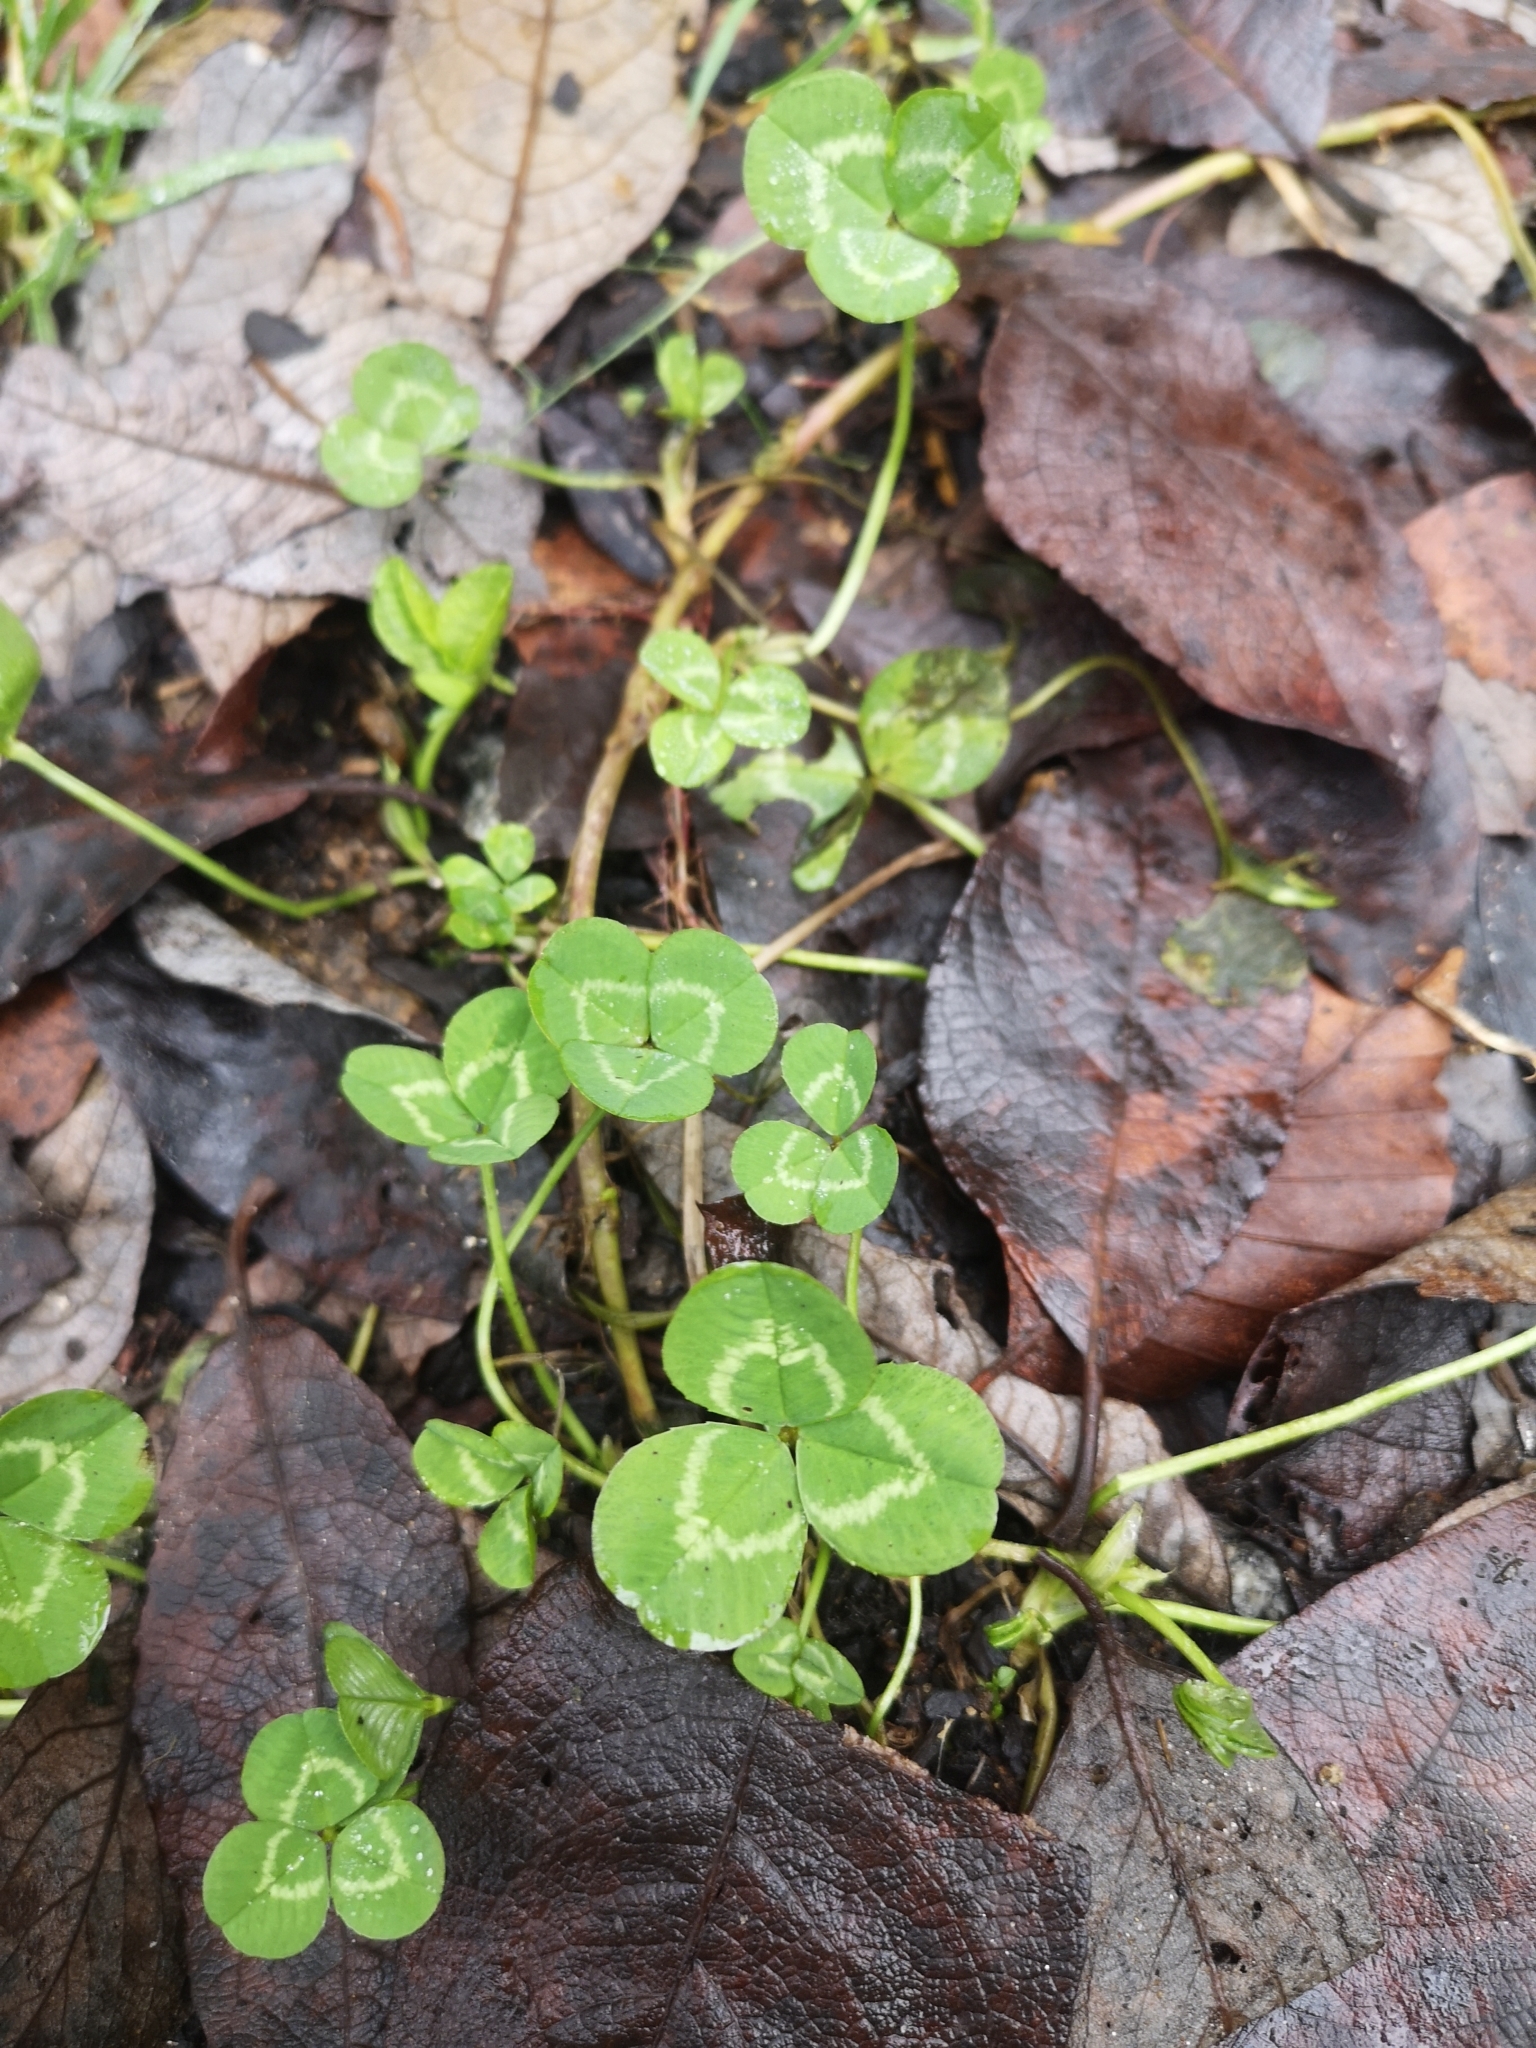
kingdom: Plantae
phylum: Tracheophyta
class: Magnoliopsida
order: Fabales
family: Fabaceae
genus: Trifolium
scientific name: Trifolium repens
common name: White clover
